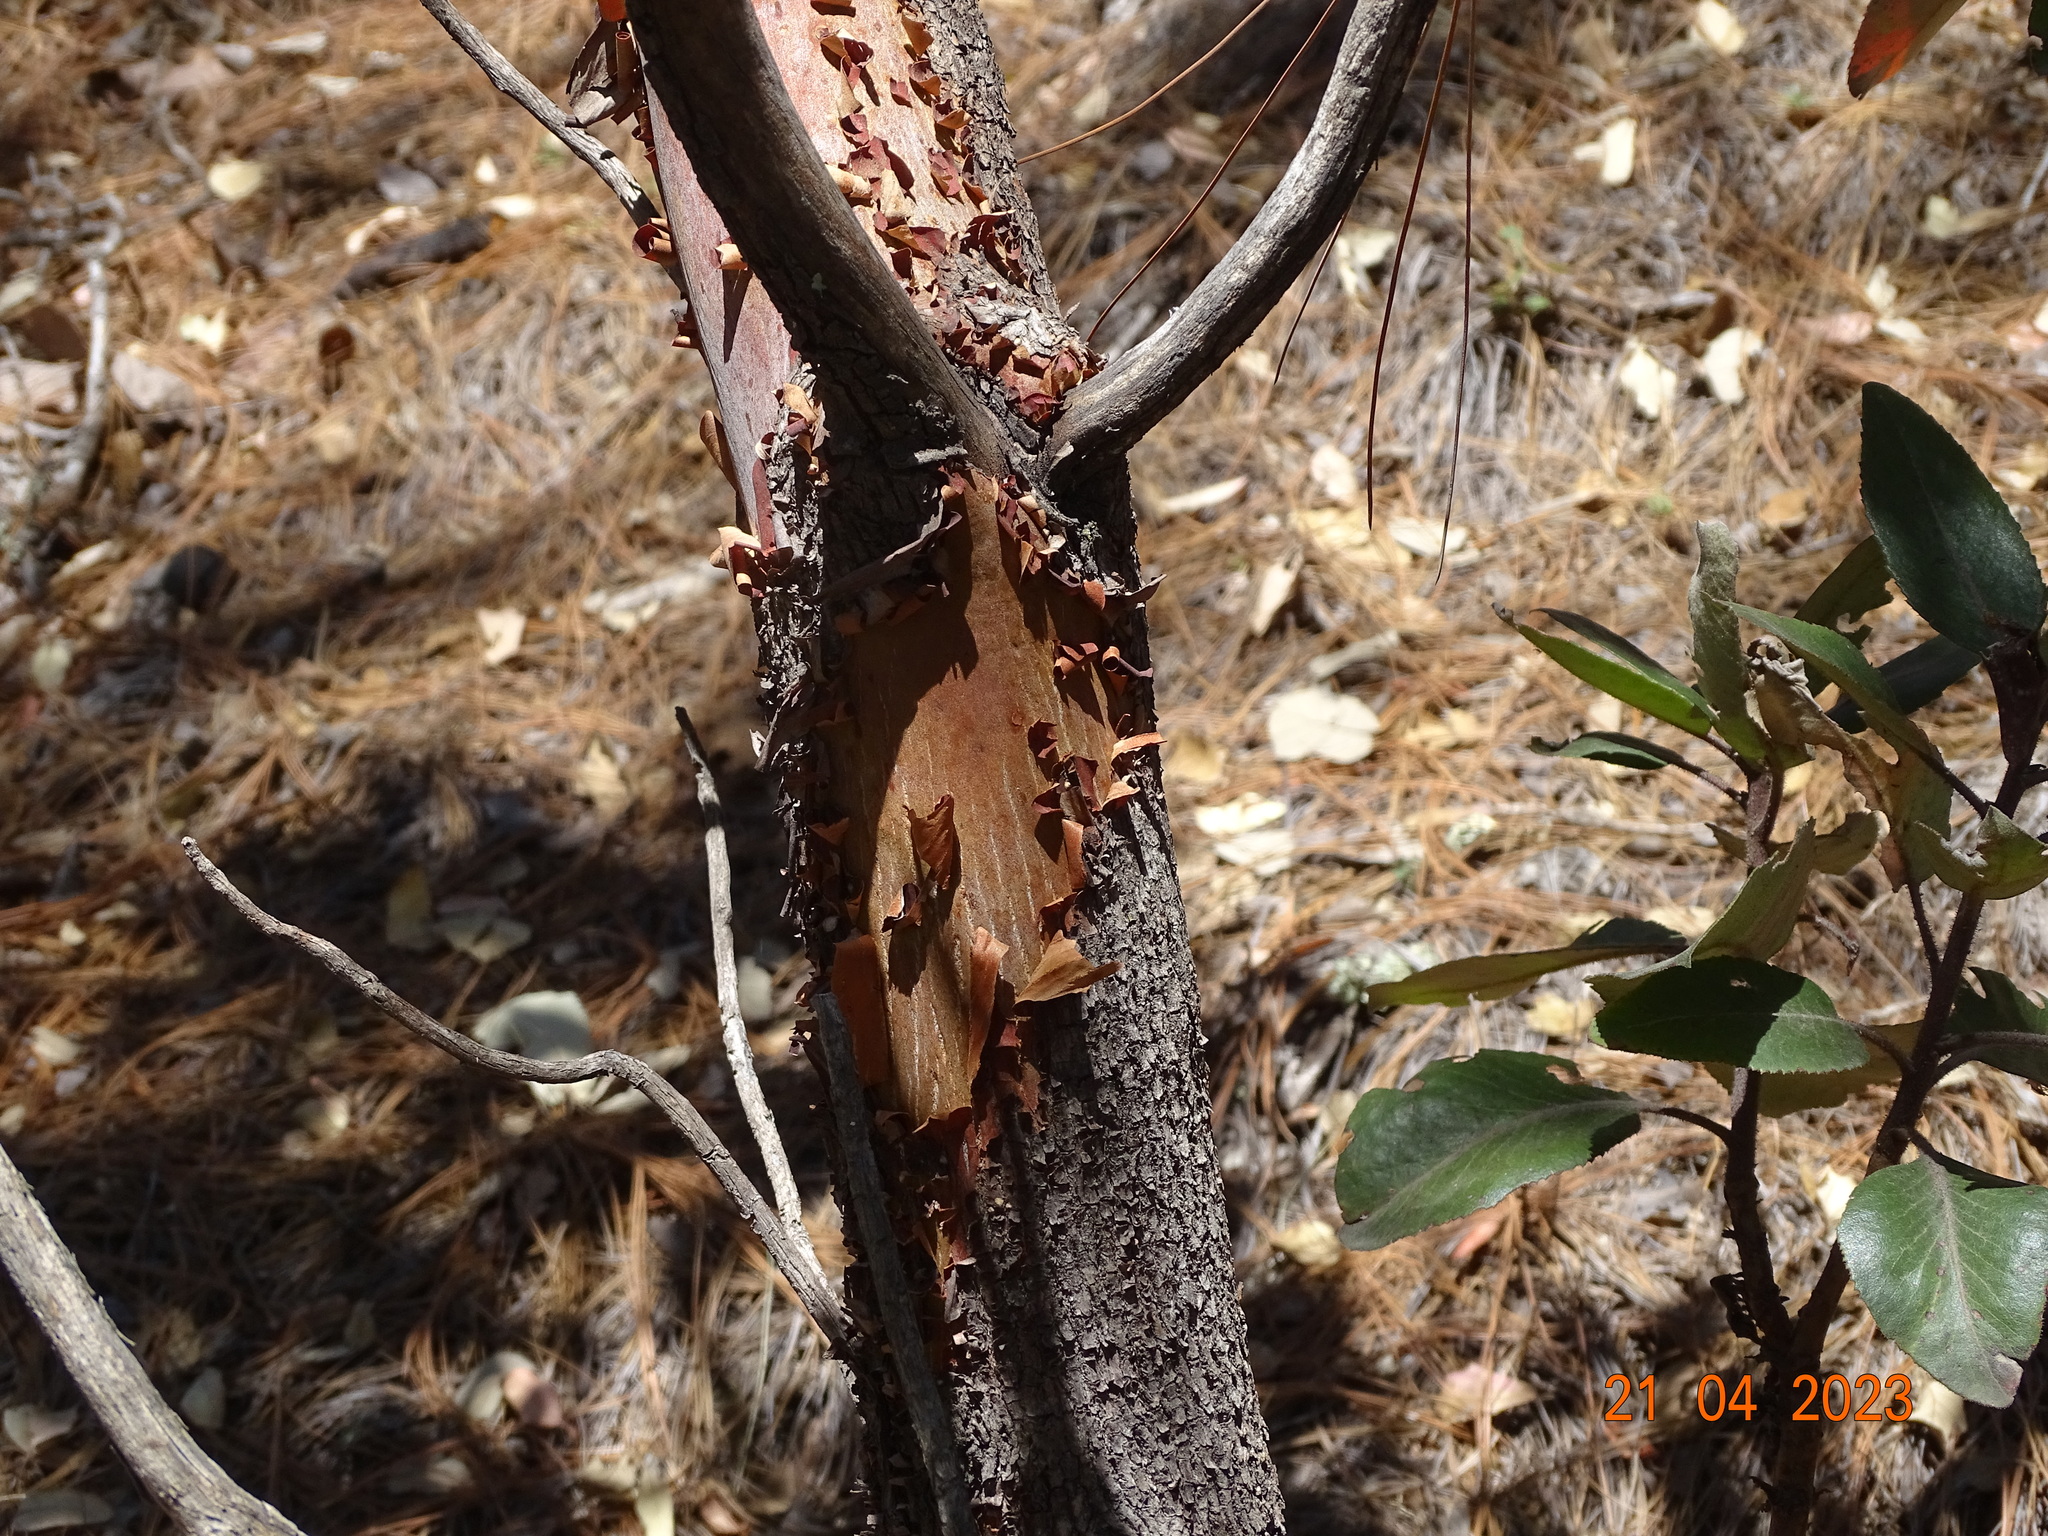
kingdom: Plantae
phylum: Tracheophyta
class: Magnoliopsida
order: Ericales
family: Ericaceae
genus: Arbutus
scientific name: Arbutus bicolor
